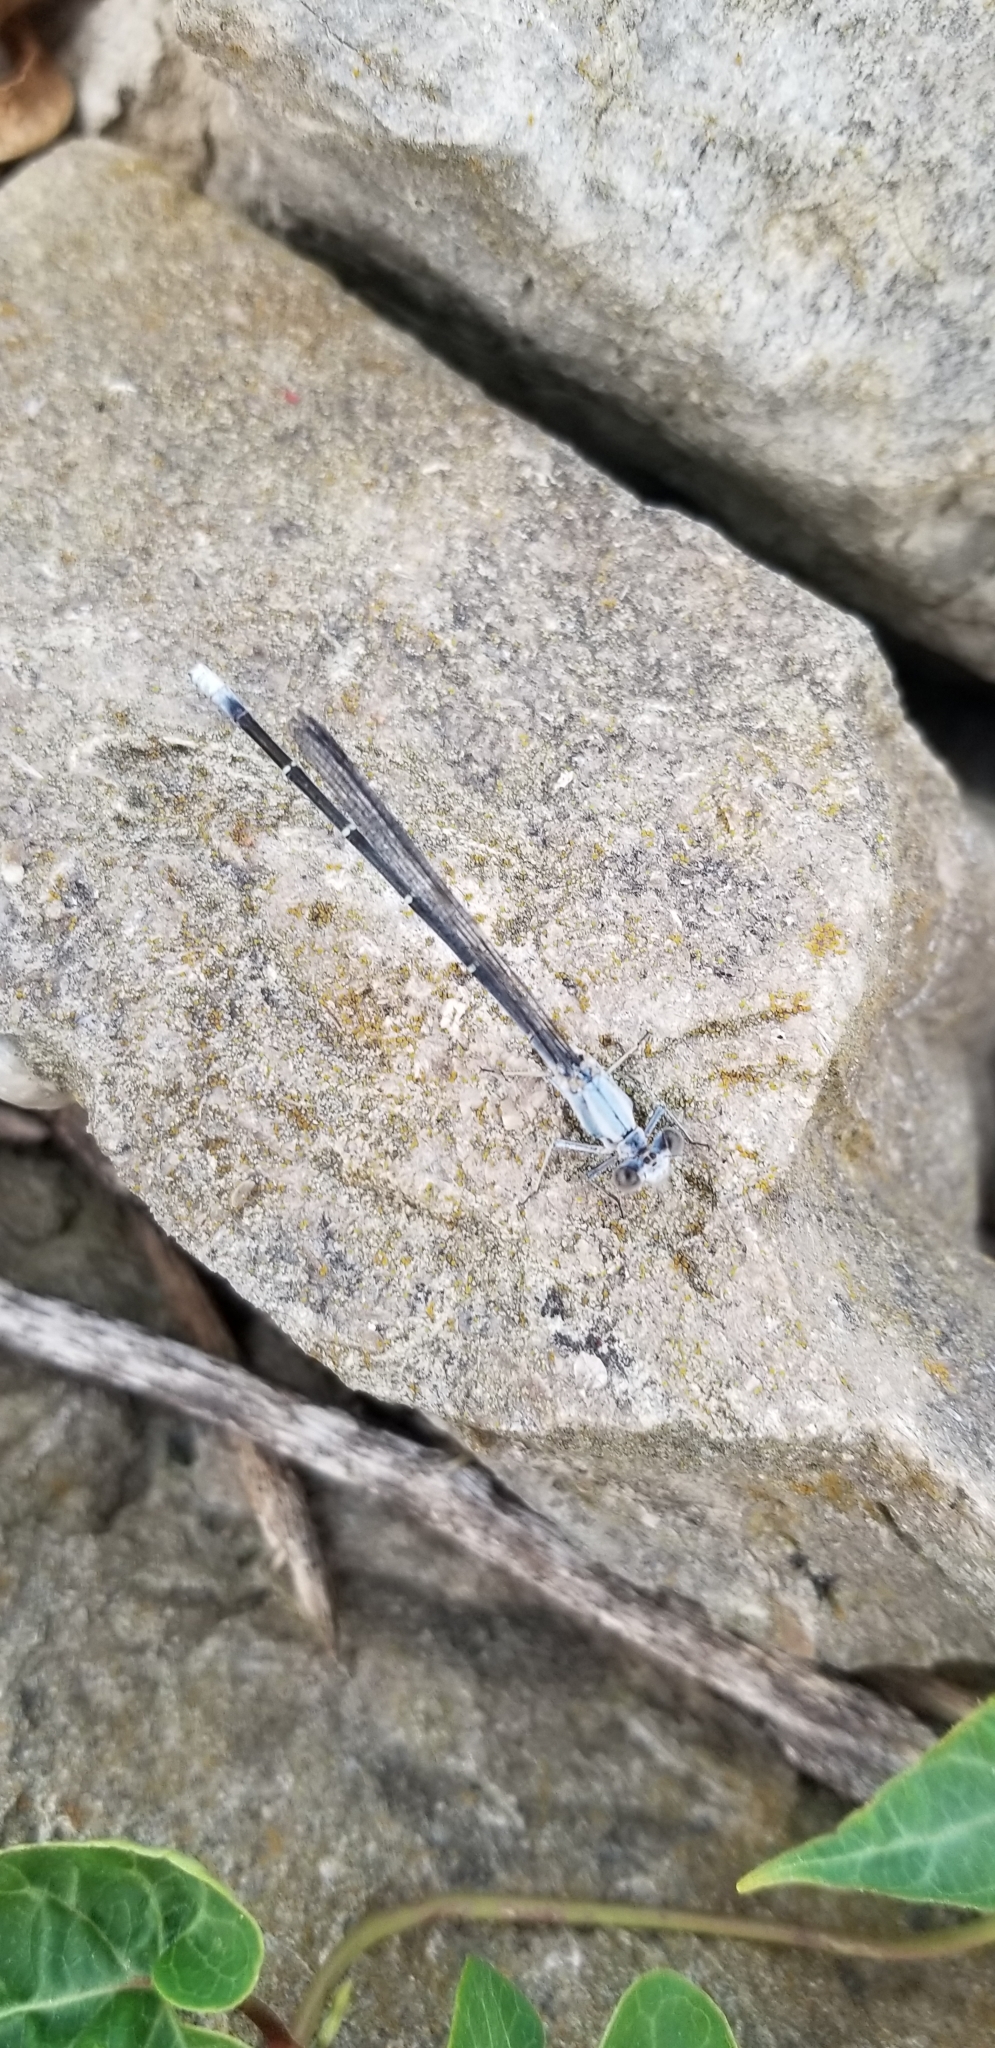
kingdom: Animalia
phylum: Arthropoda
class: Insecta
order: Odonata
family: Coenagrionidae
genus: Argia
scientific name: Argia moesta
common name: Powdered dancer
